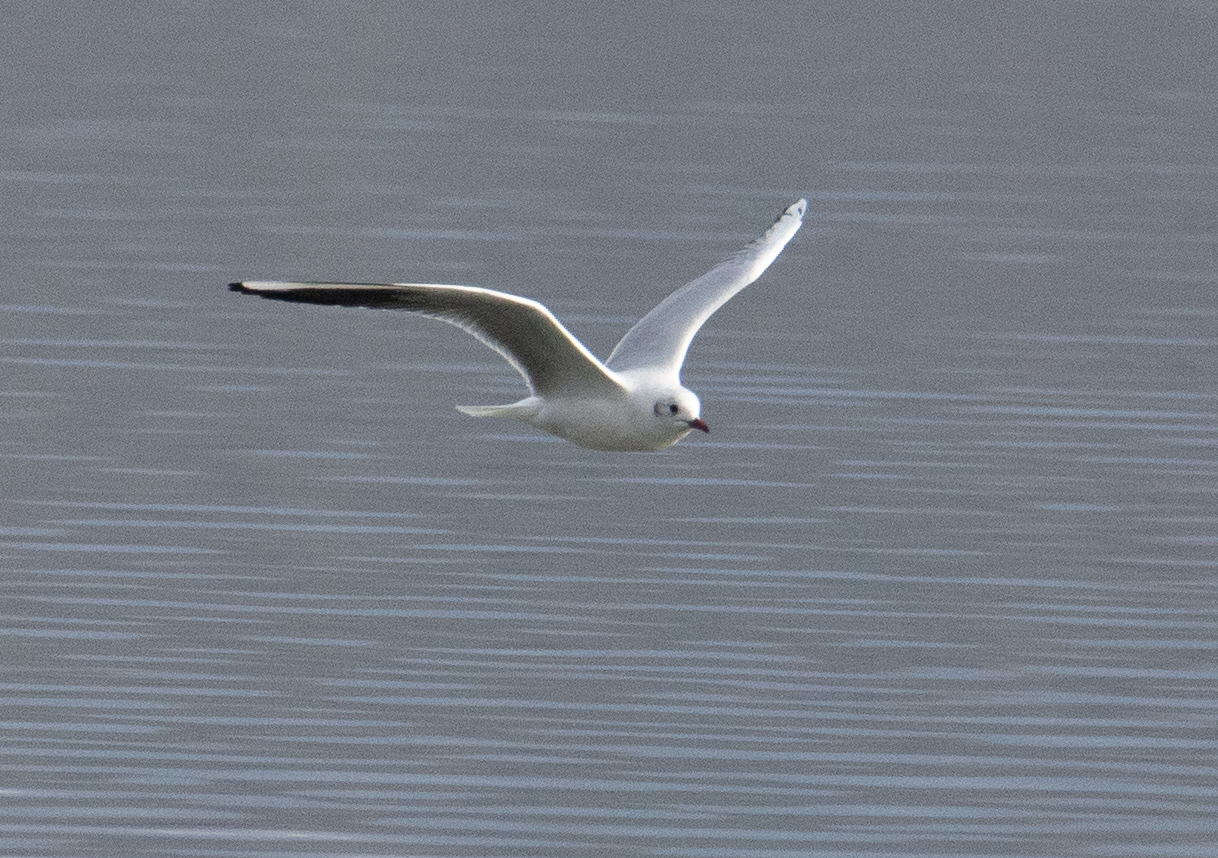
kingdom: Animalia
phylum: Chordata
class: Aves
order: Charadriiformes
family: Laridae
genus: Chroicocephalus
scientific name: Chroicocephalus ridibundus
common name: Black-headed gull
